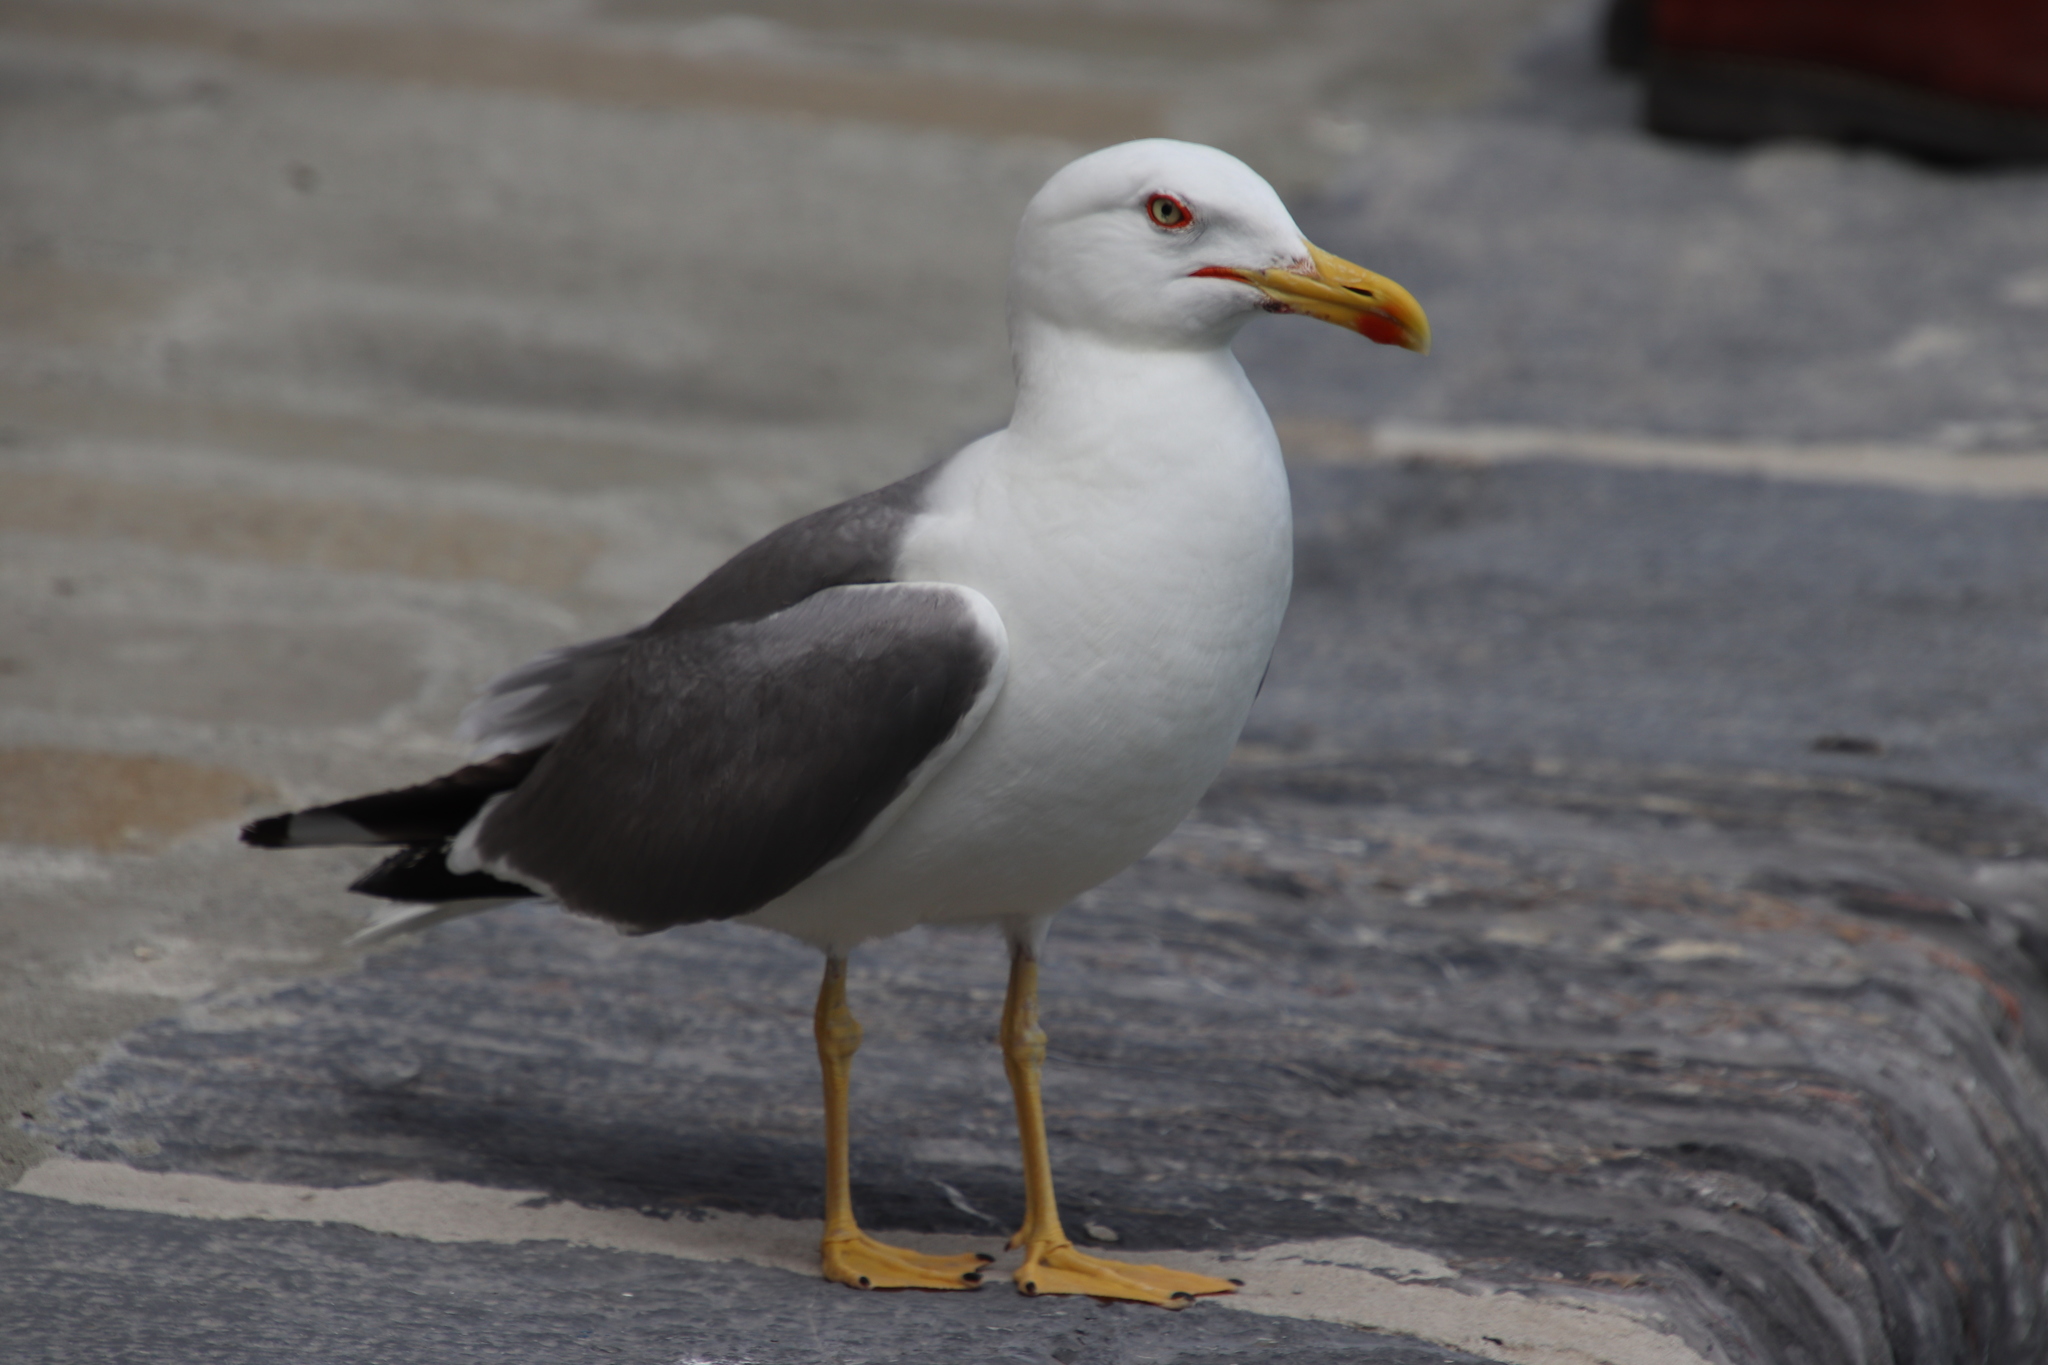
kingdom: Animalia
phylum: Chordata
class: Aves
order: Charadriiformes
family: Laridae
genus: Larus
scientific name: Larus michahellis
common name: Yellow-legged gull
